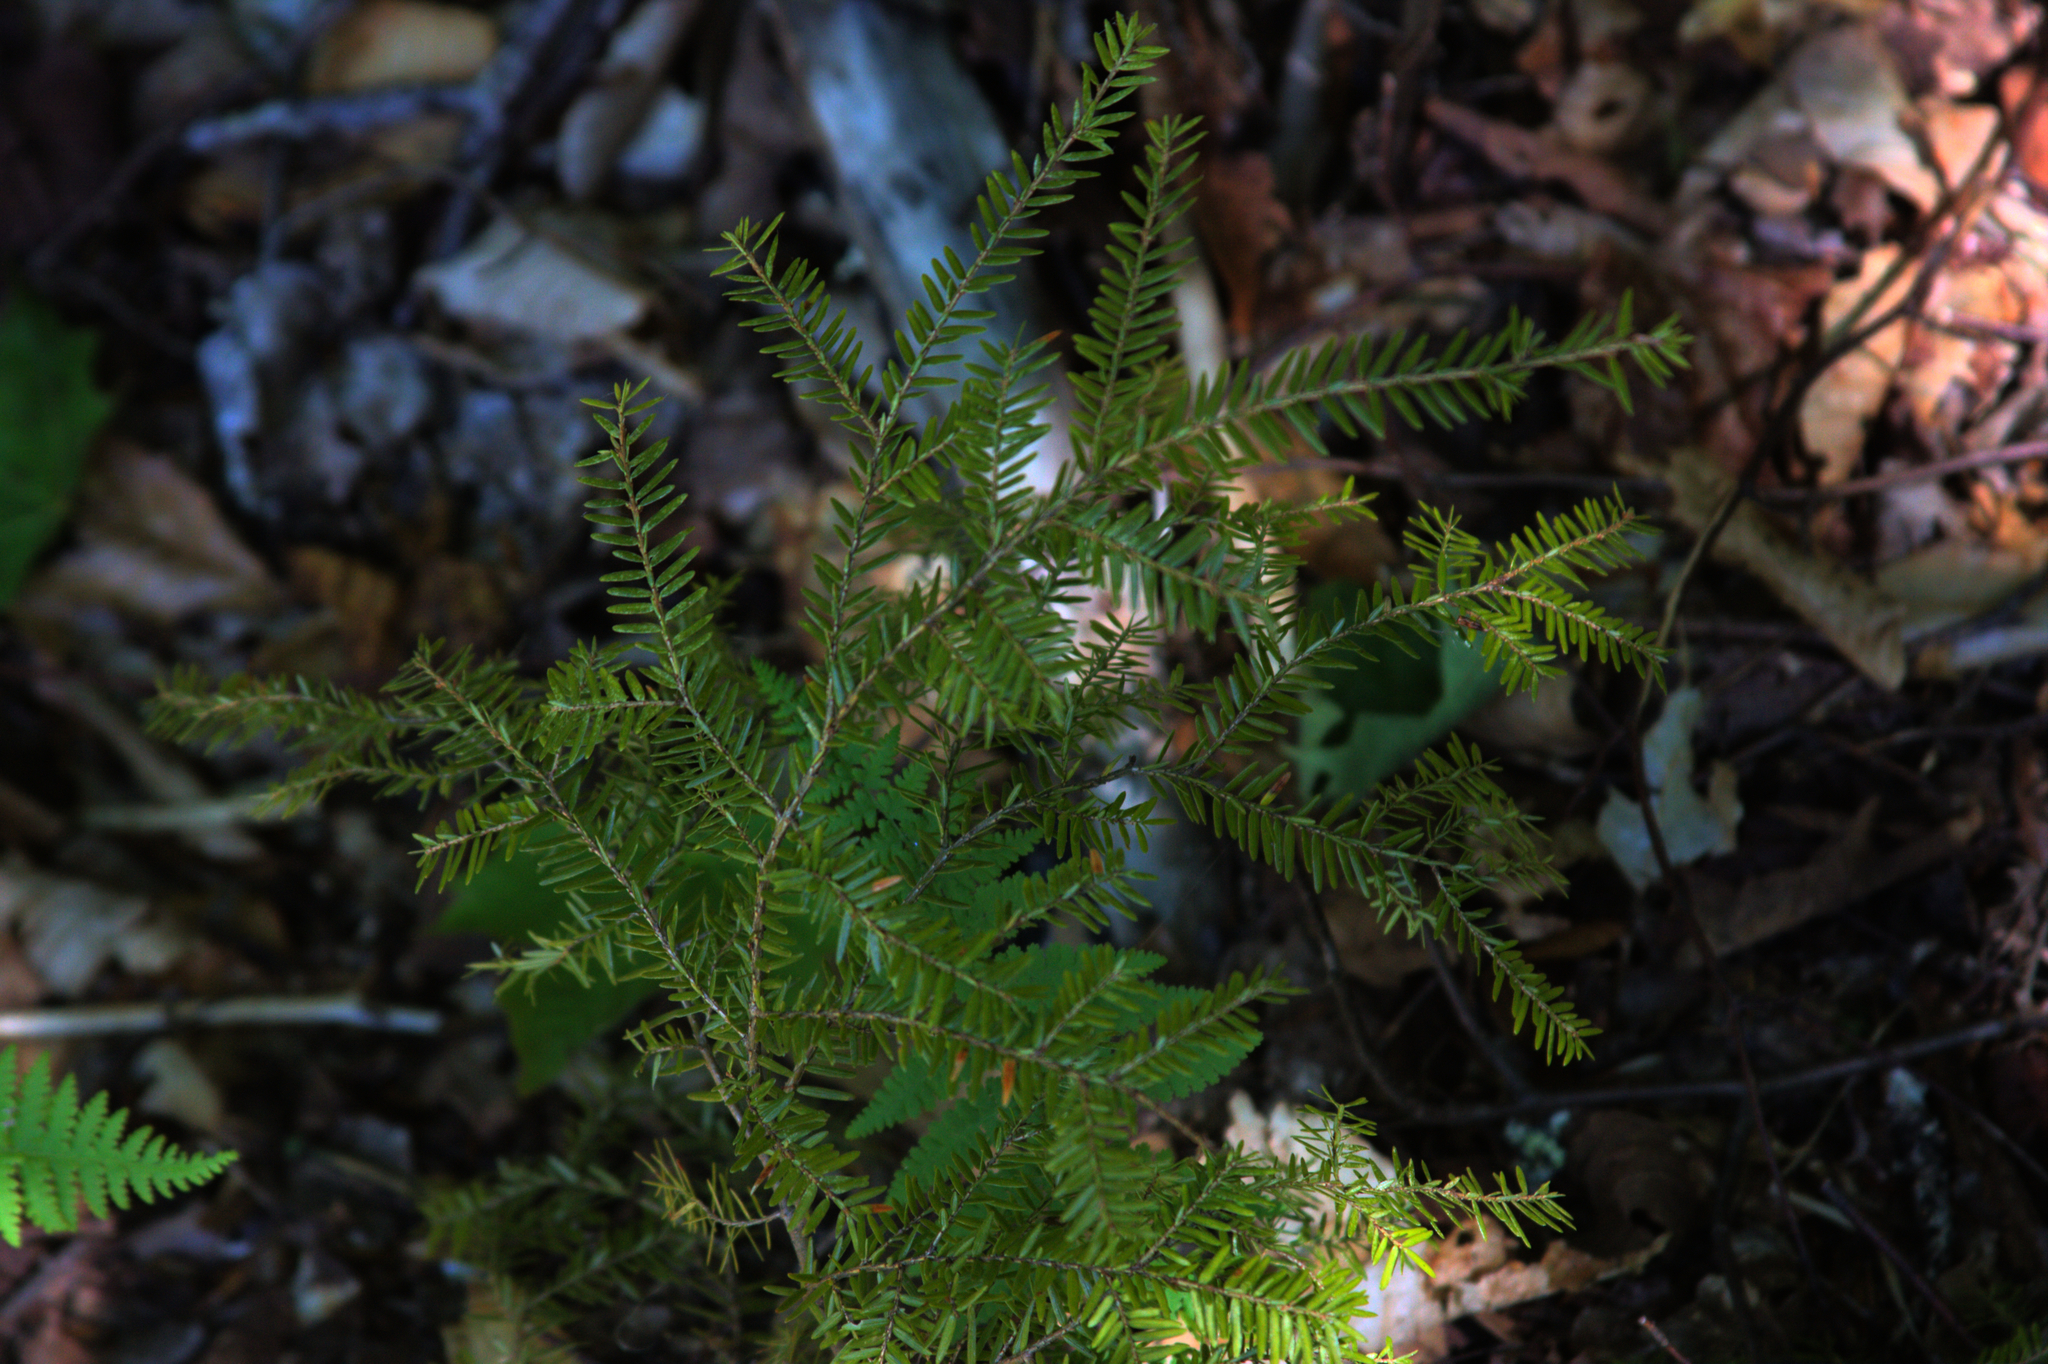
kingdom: Plantae
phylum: Tracheophyta
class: Pinopsida
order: Pinales
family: Pinaceae
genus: Tsuga
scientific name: Tsuga canadensis
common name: Eastern hemlock
